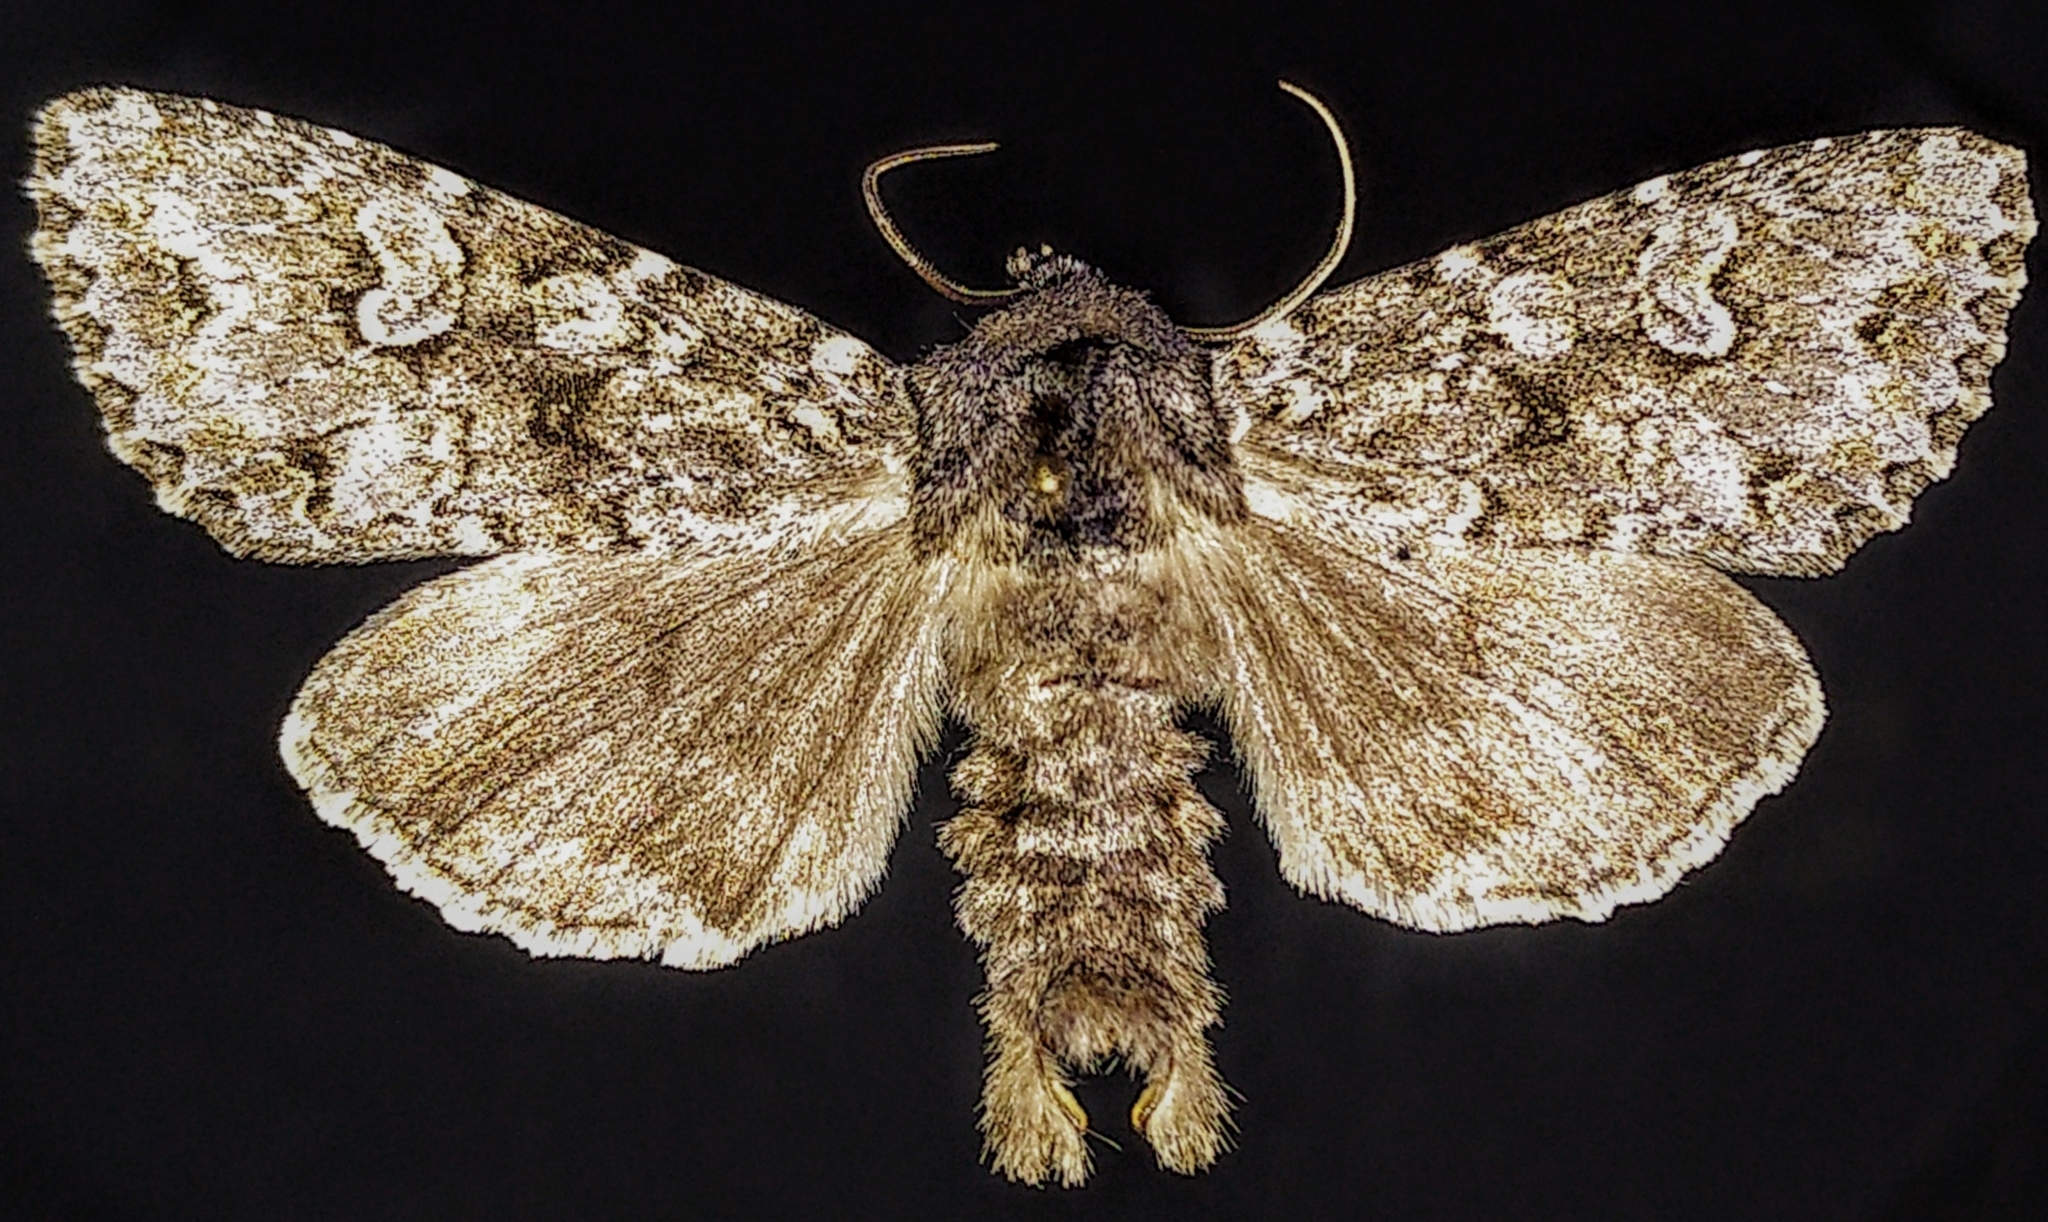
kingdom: Animalia
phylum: Arthropoda
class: Insecta
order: Lepidoptera
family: Noctuidae
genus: Polia
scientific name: Polia rogenhoferi
